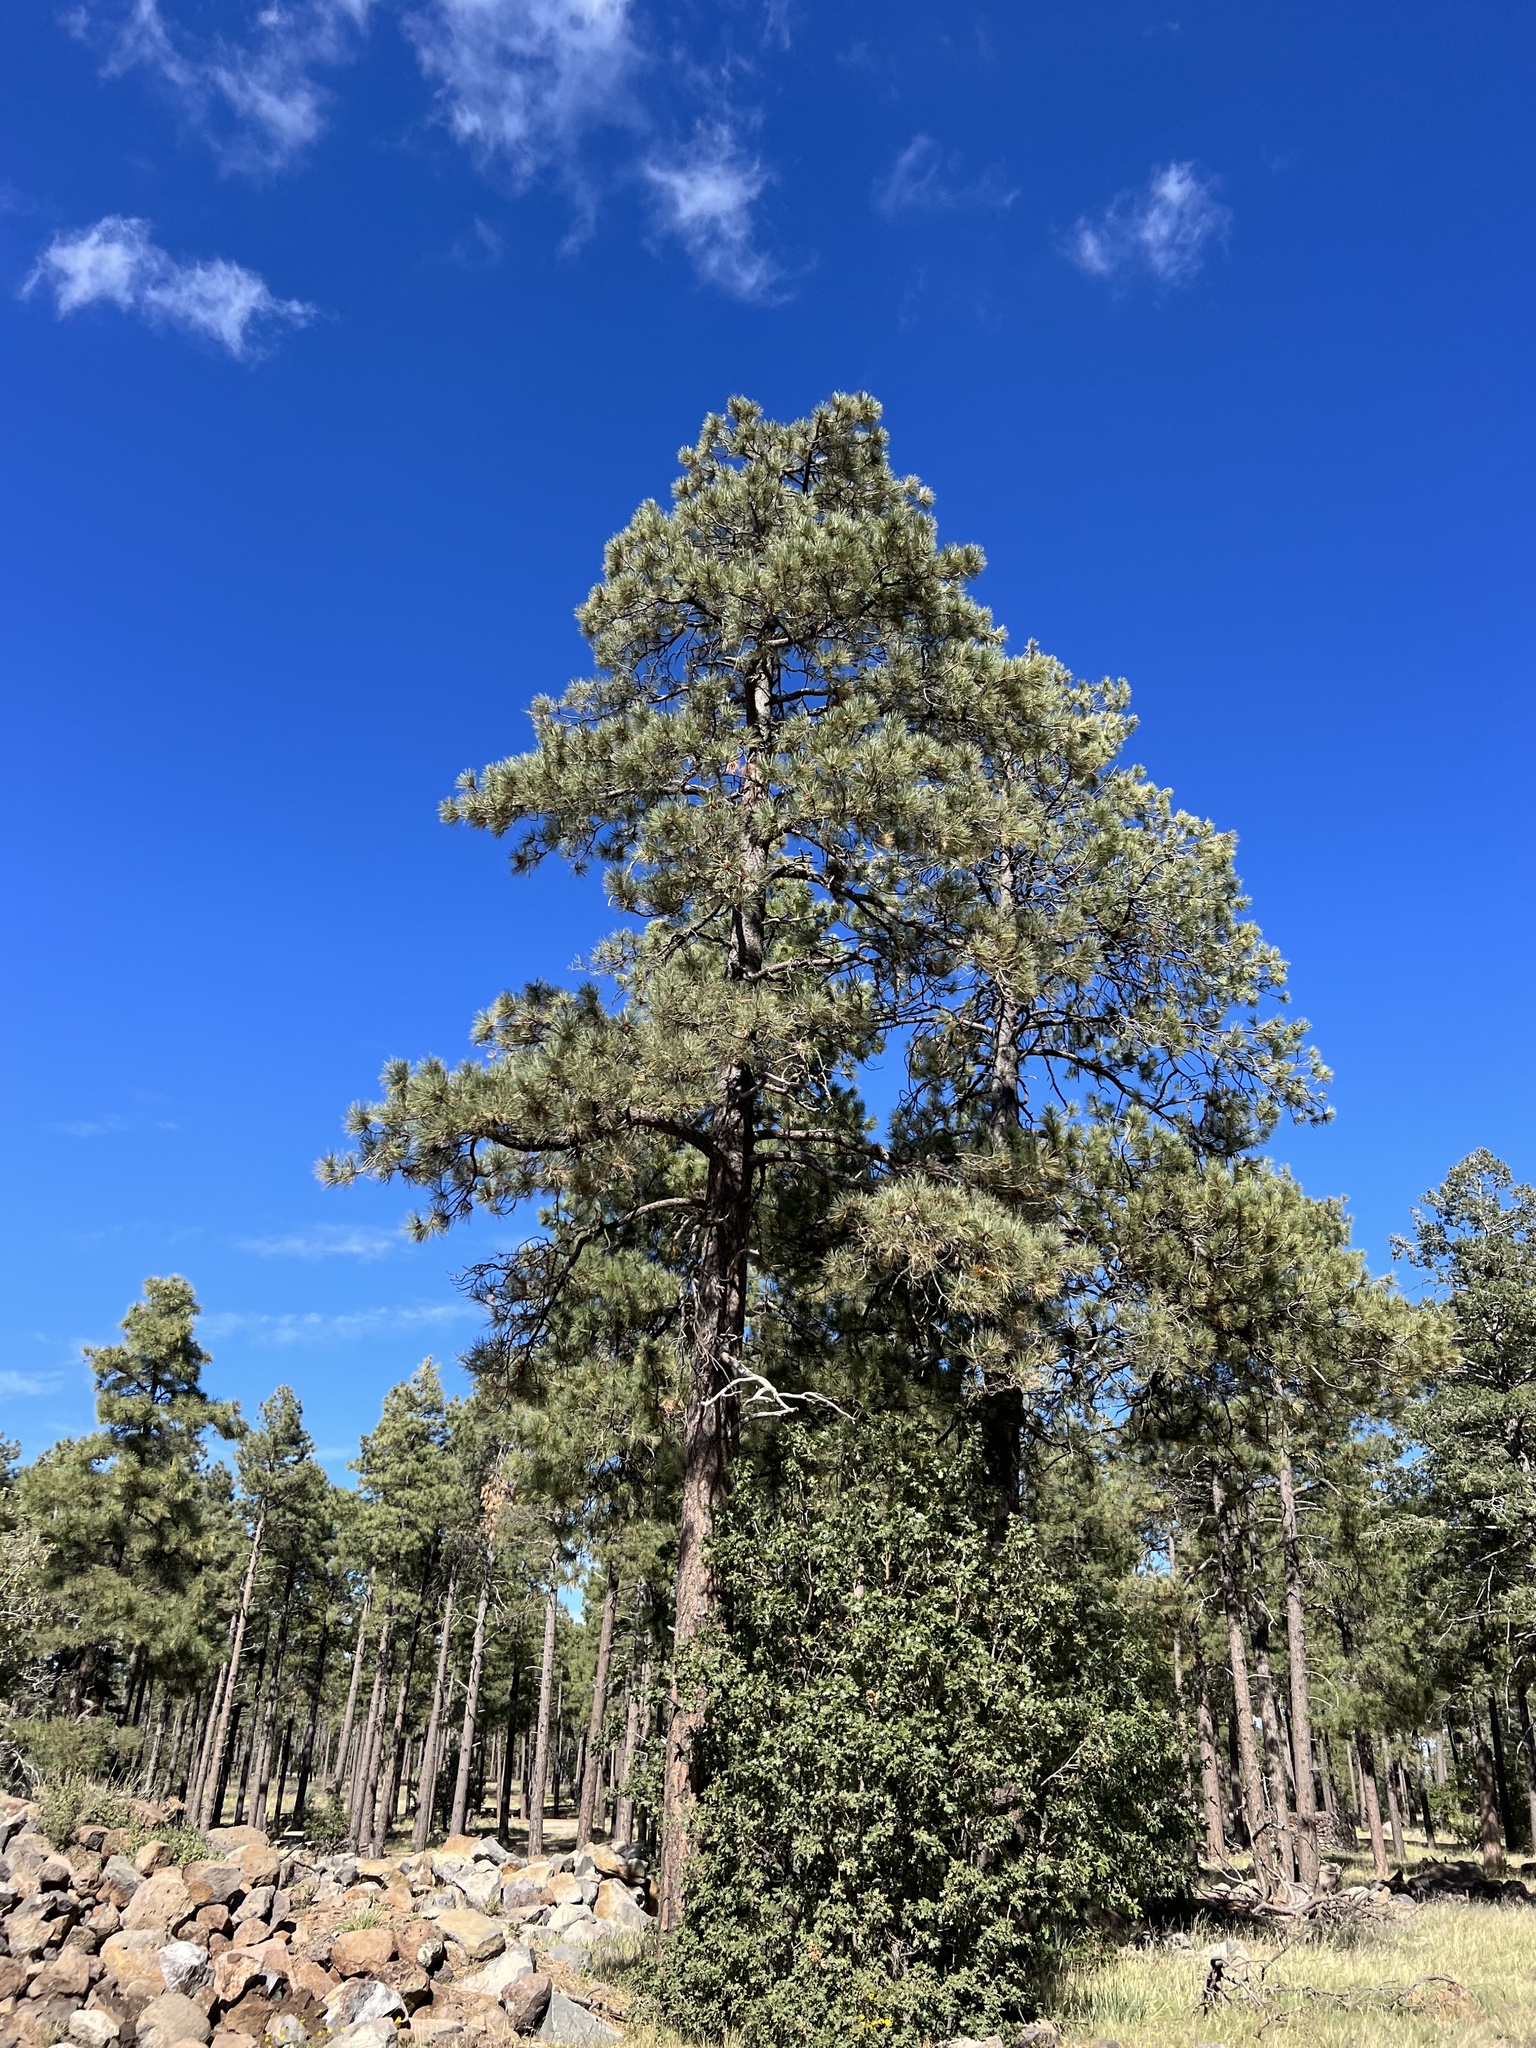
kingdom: Plantae
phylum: Tracheophyta
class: Pinopsida
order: Pinales
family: Pinaceae
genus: Pinus
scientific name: Pinus ponderosa
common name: Western yellow-pine
